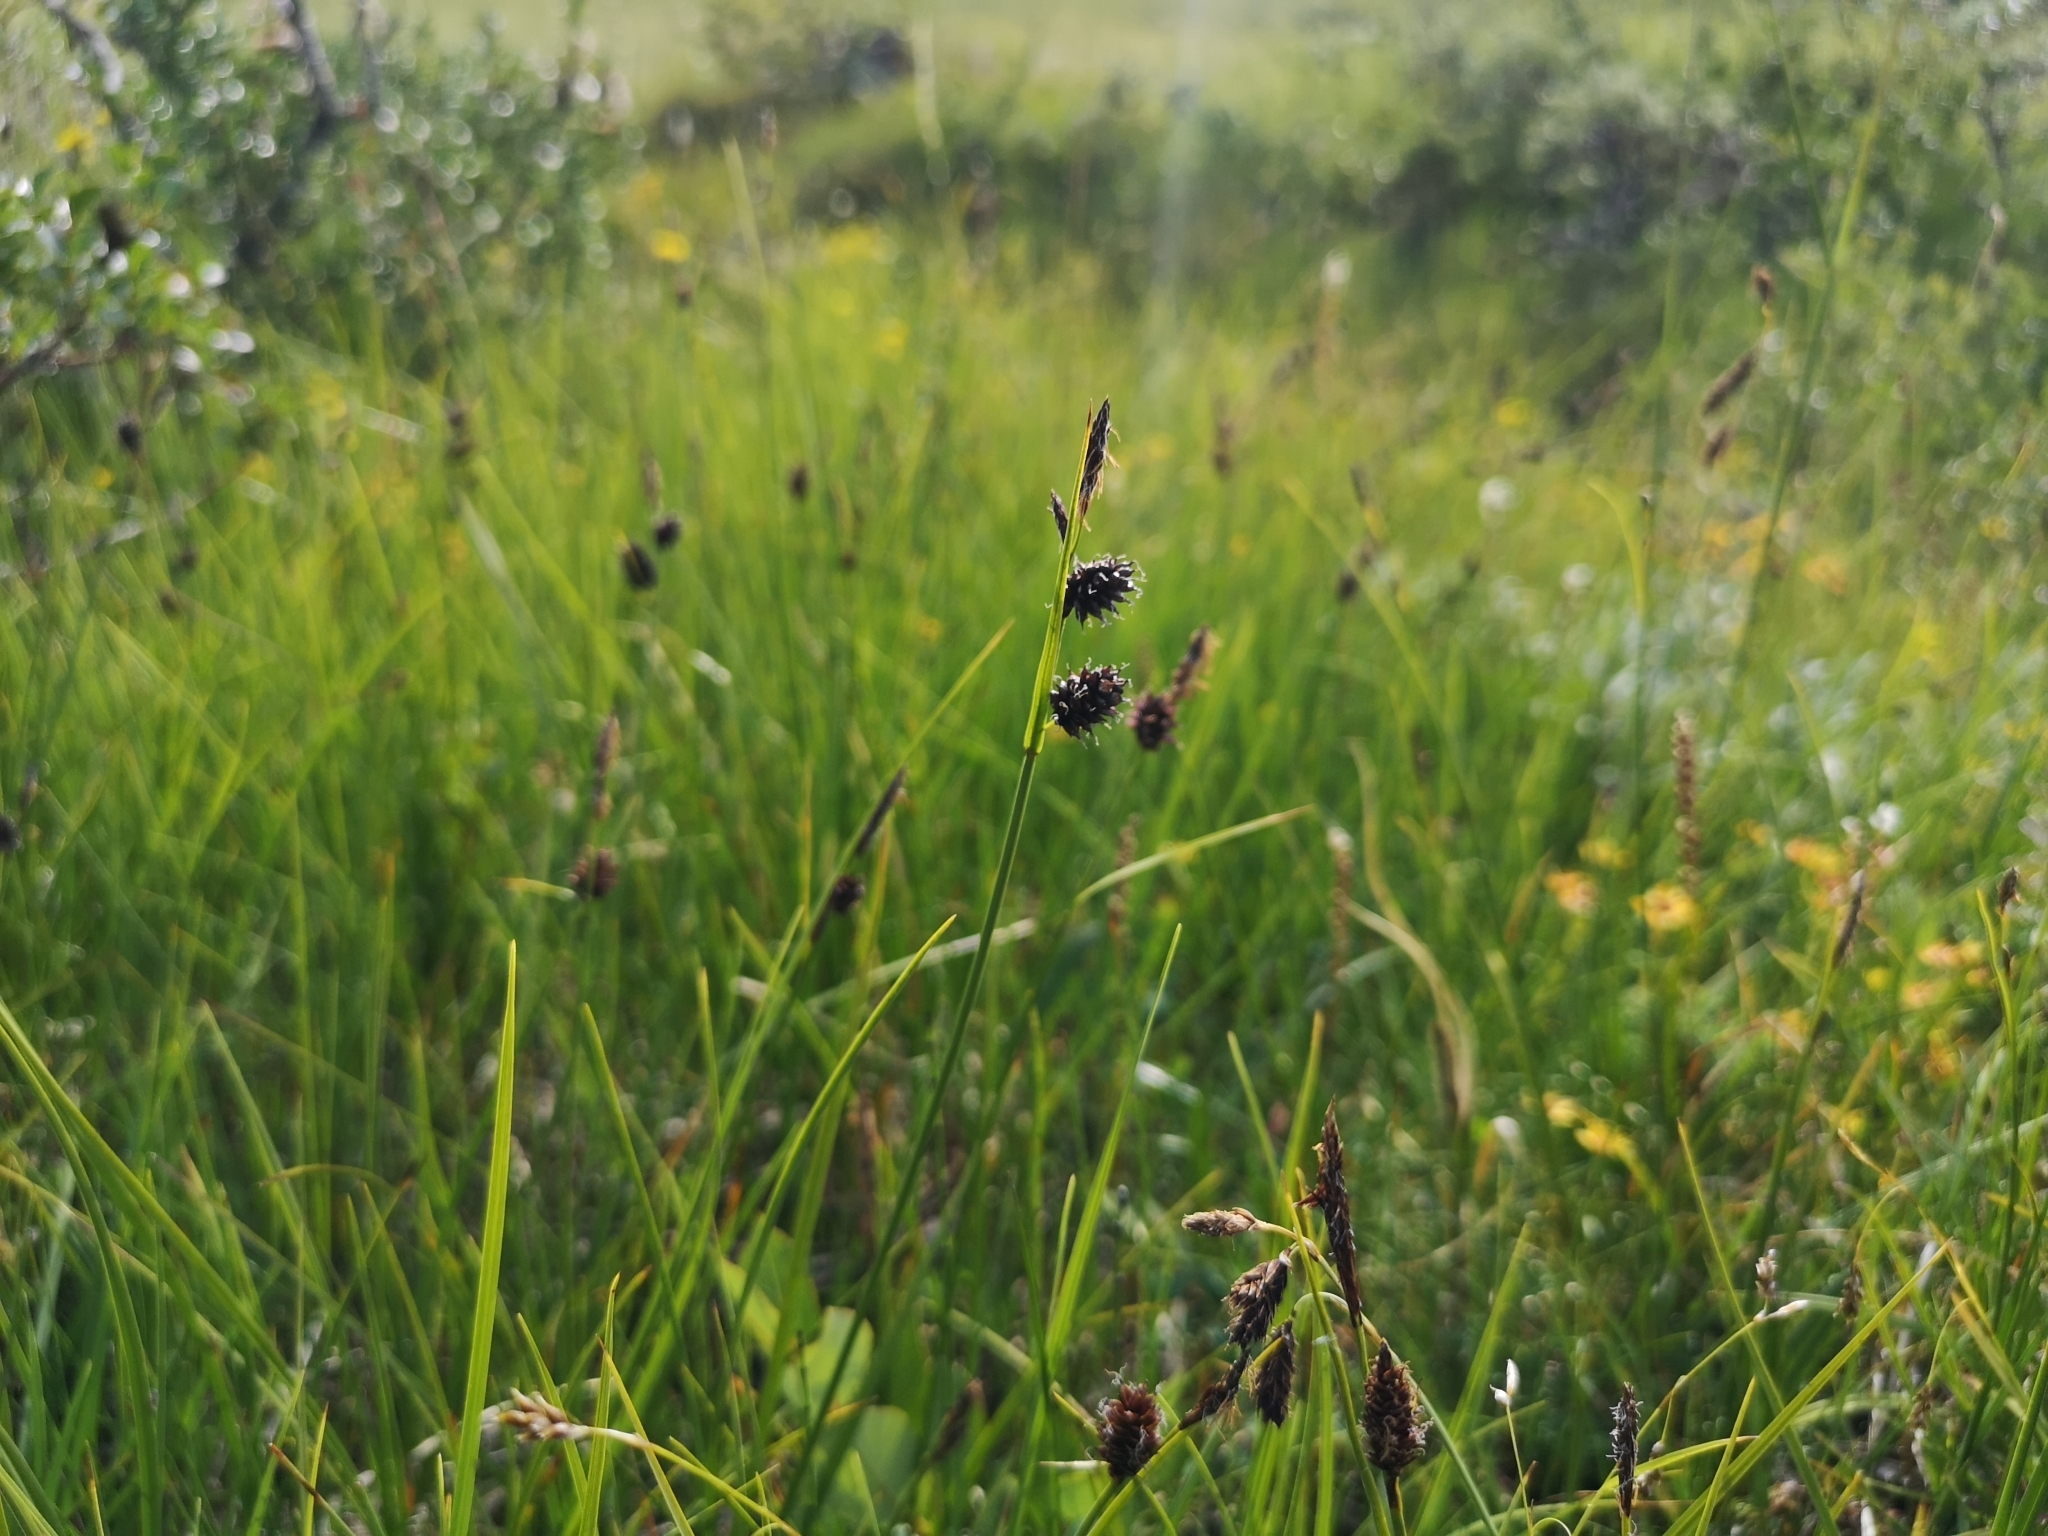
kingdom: Plantae
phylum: Tracheophyta
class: Liliopsida
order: Poales
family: Cyperaceae
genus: Carex
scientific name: Carex saxatilis
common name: Russet sedge
